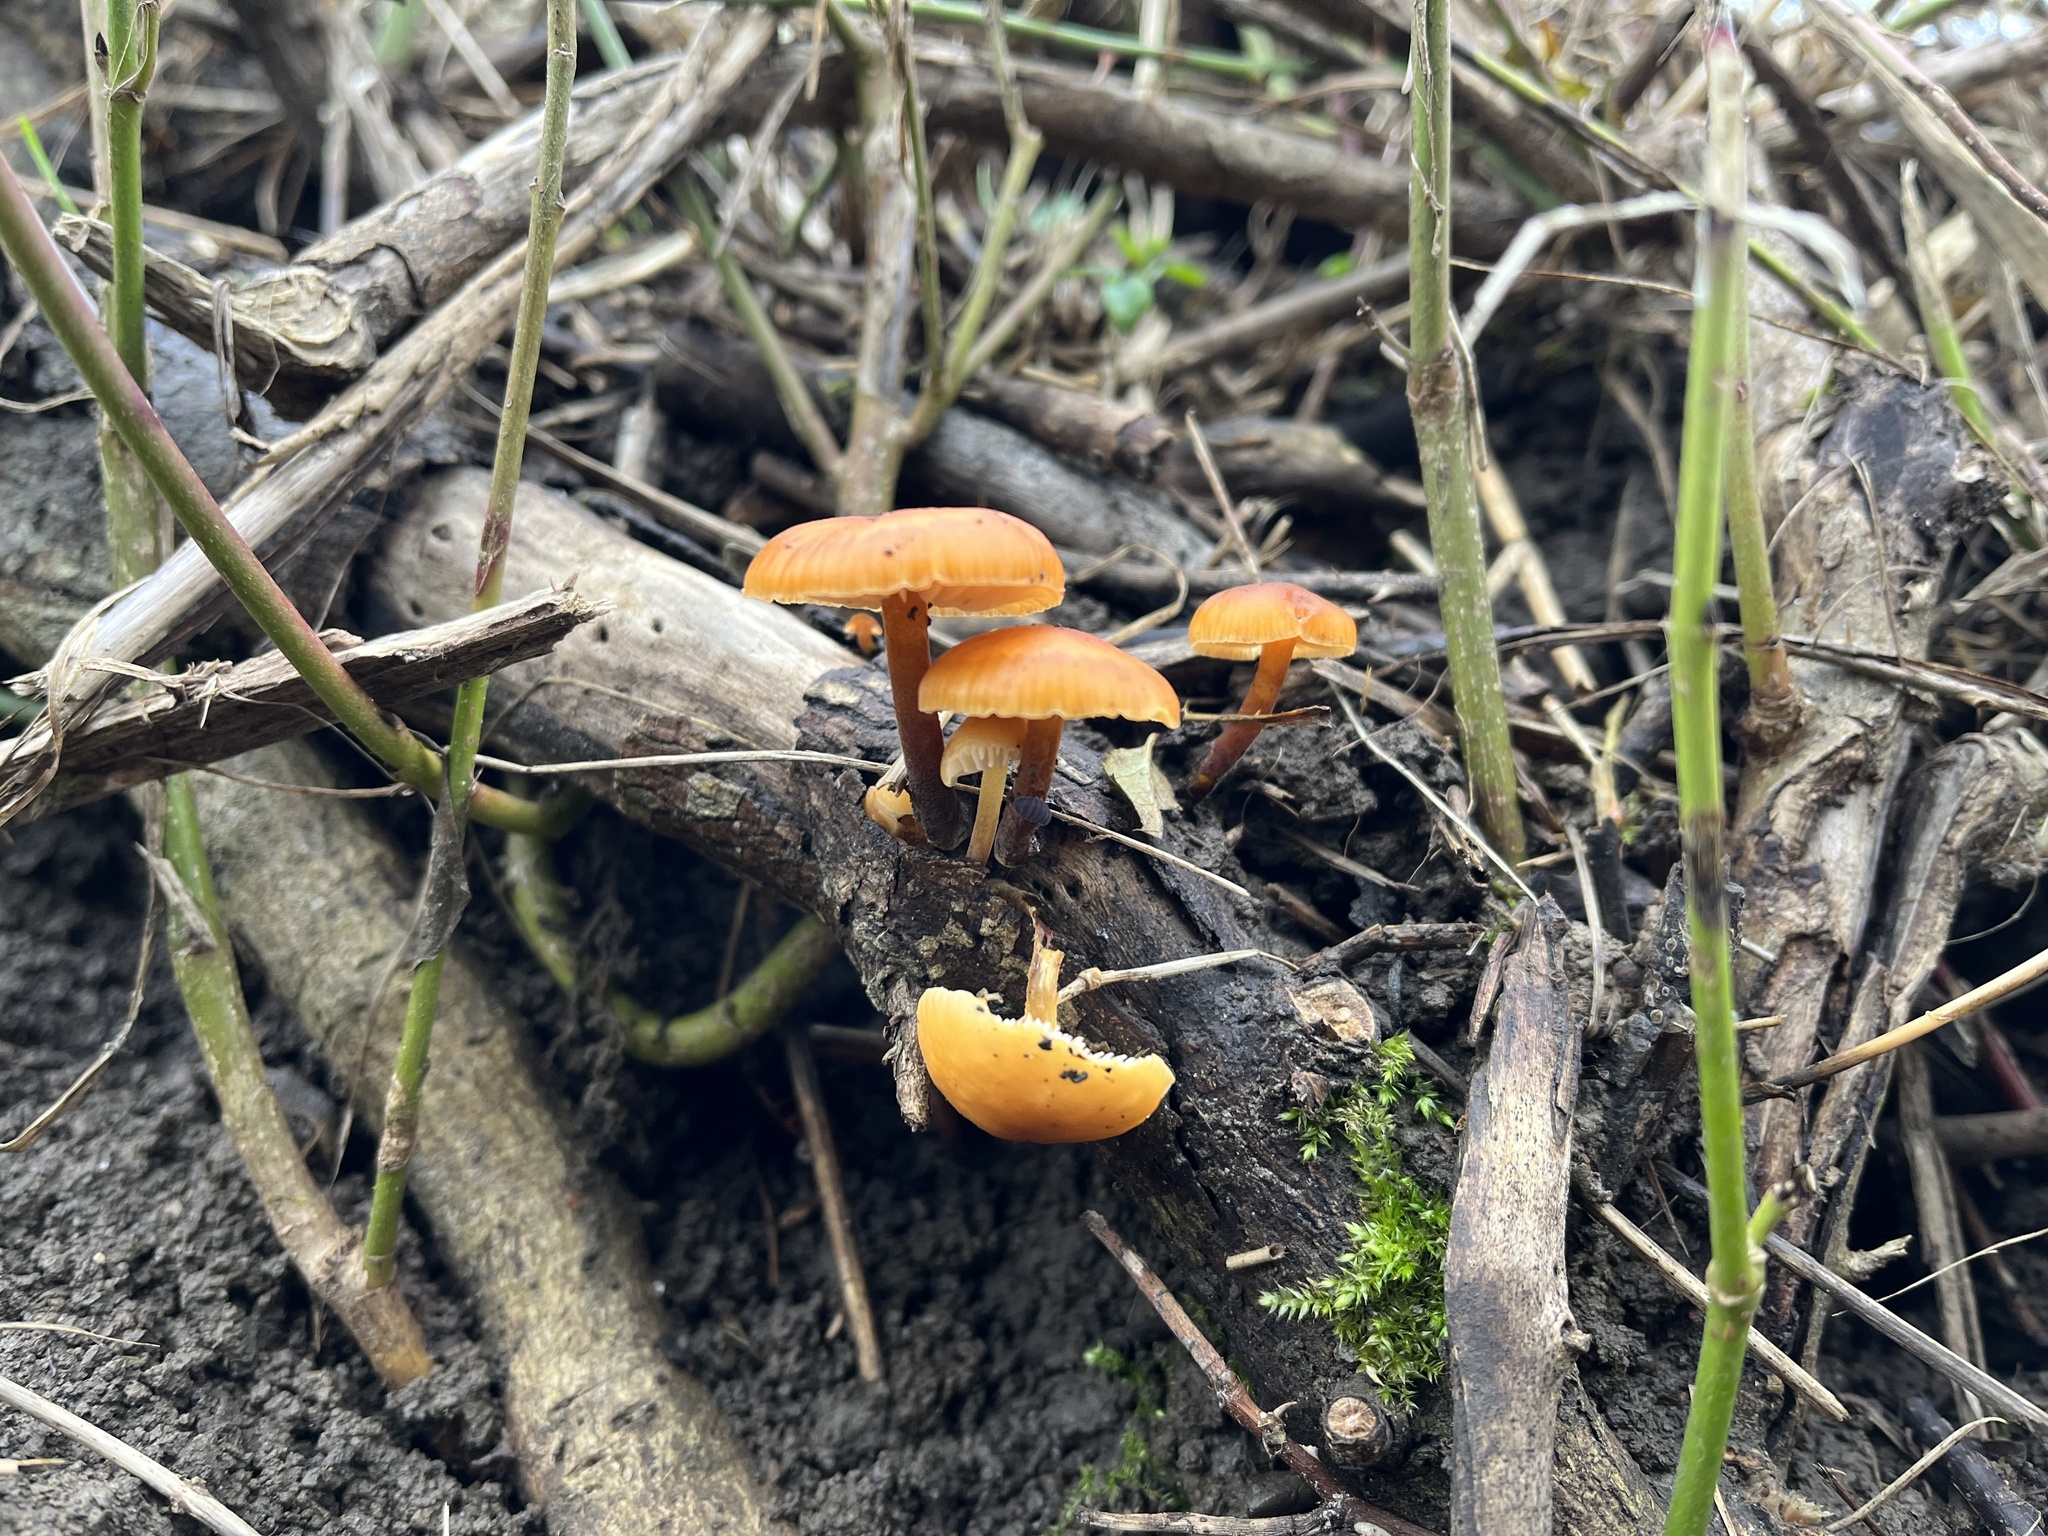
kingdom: Fungi
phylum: Basidiomycota
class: Agaricomycetes
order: Agaricales
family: Physalacriaceae
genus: Flammulina
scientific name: Flammulina
